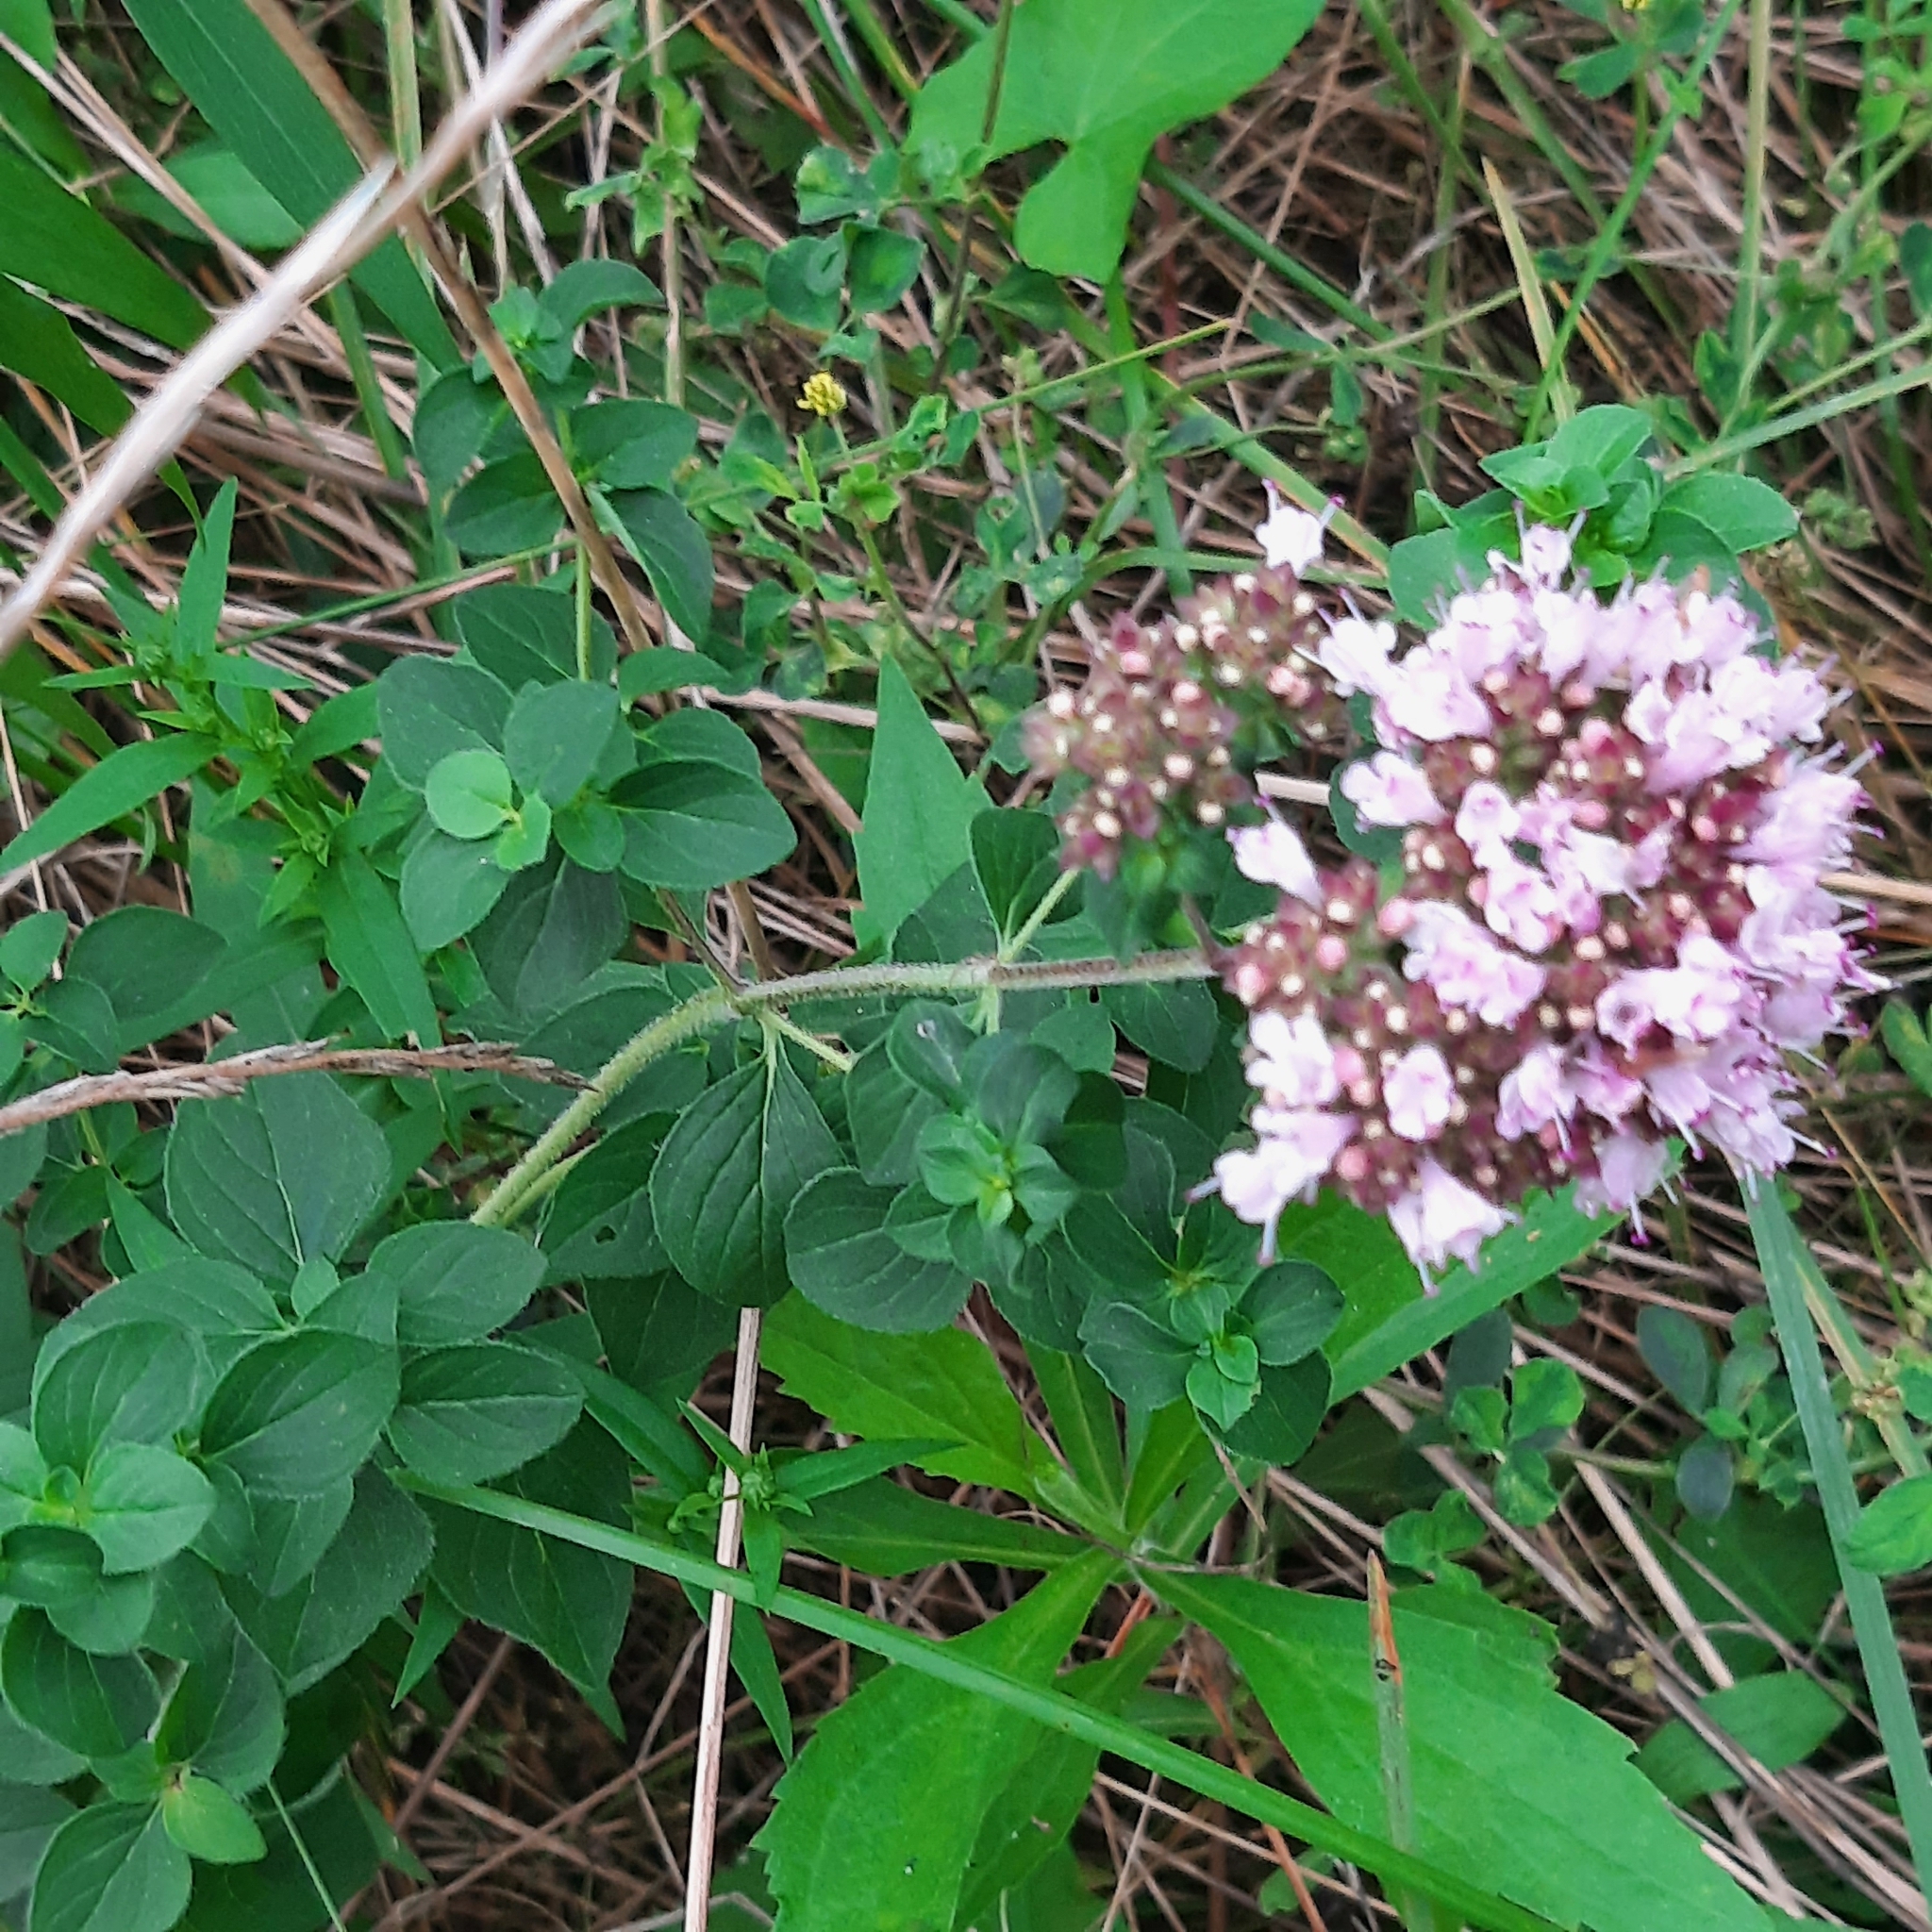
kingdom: Plantae
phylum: Tracheophyta
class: Magnoliopsida
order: Lamiales
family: Lamiaceae
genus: Origanum
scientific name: Origanum vulgare
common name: Wild marjoram
